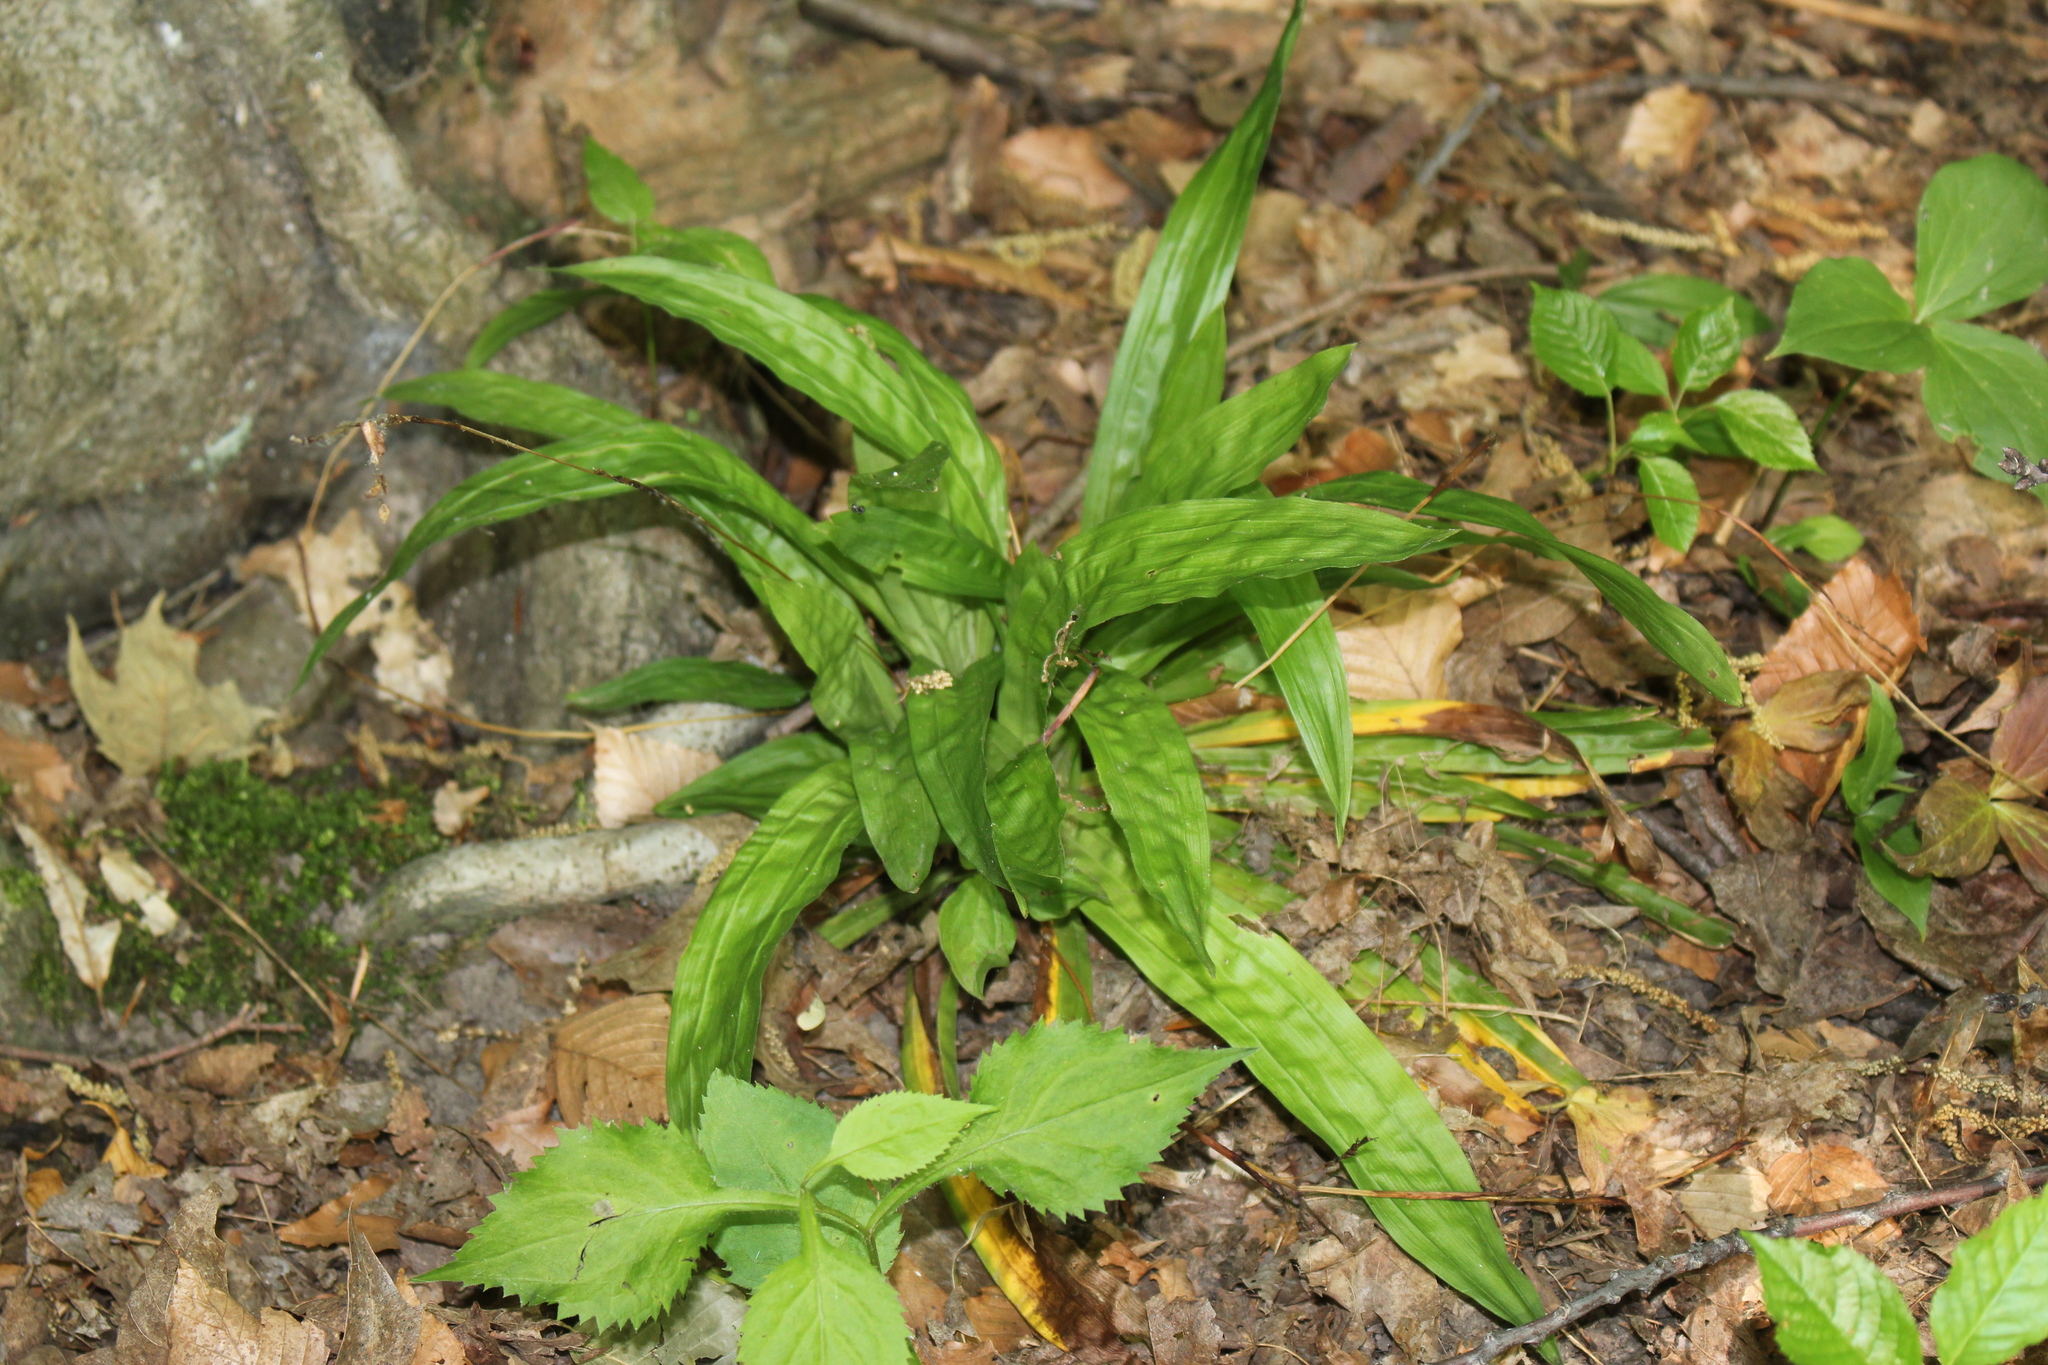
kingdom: Plantae
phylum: Tracheophyta
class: Liliopsida
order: Poales
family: Cyperaceae
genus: Carex
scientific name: Carex plantaginea
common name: Plantain-leaved sedge
